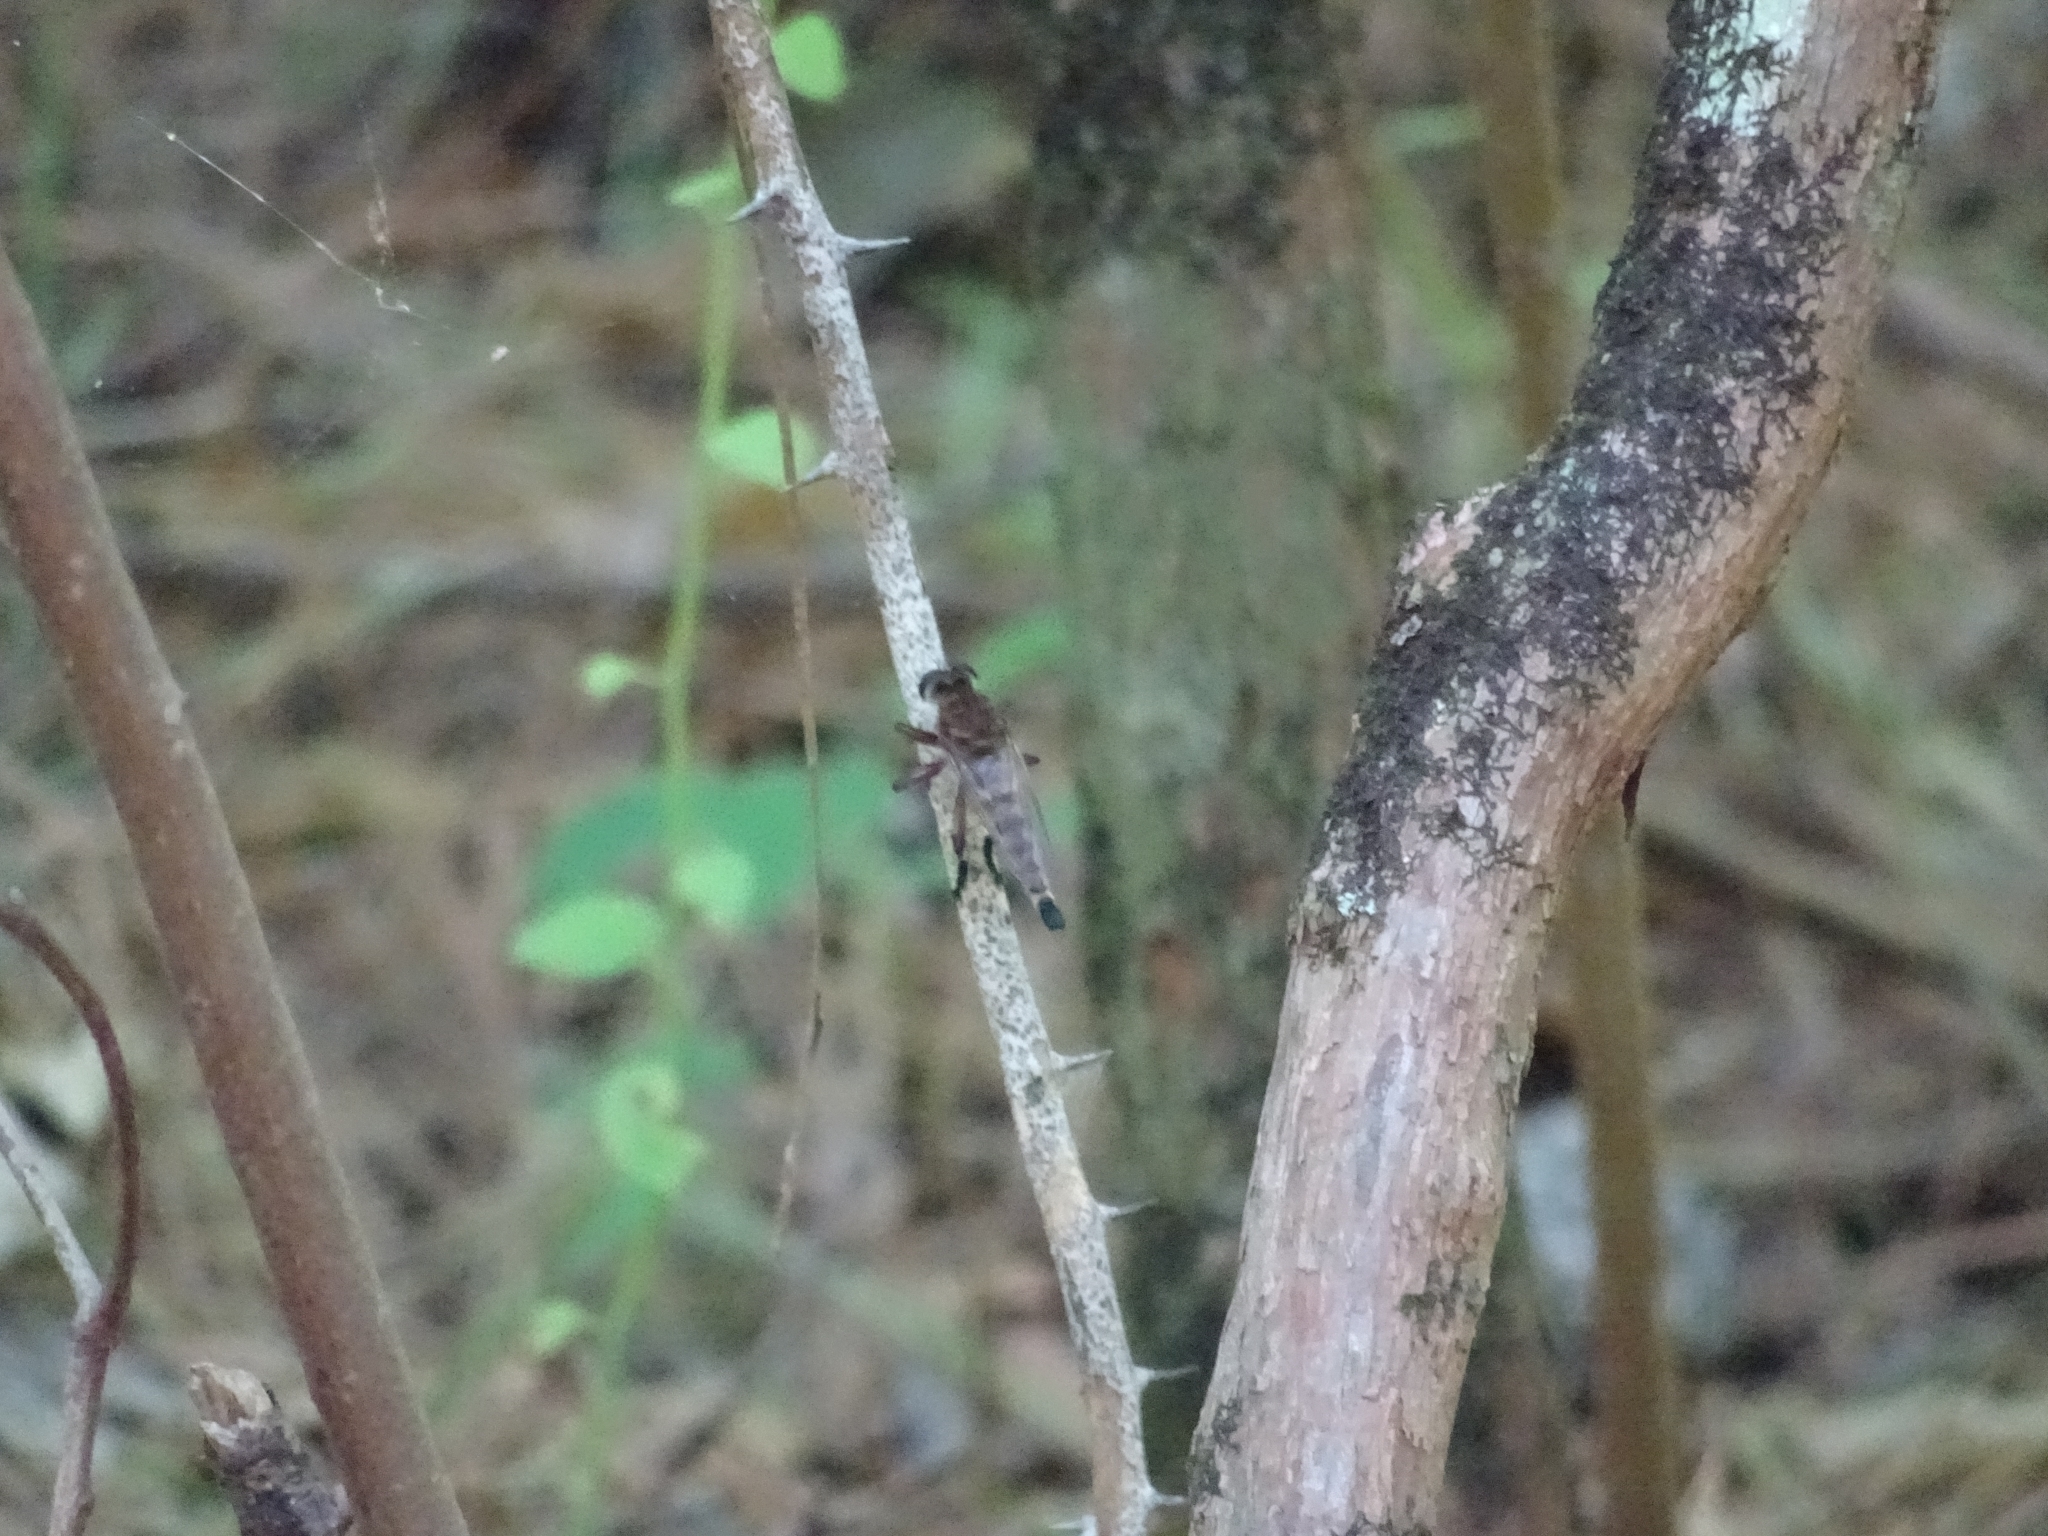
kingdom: Animalia
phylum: Arthropoda
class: Insecta
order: Diptera
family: Asilidae
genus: Promachus
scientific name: Promachus hinei
